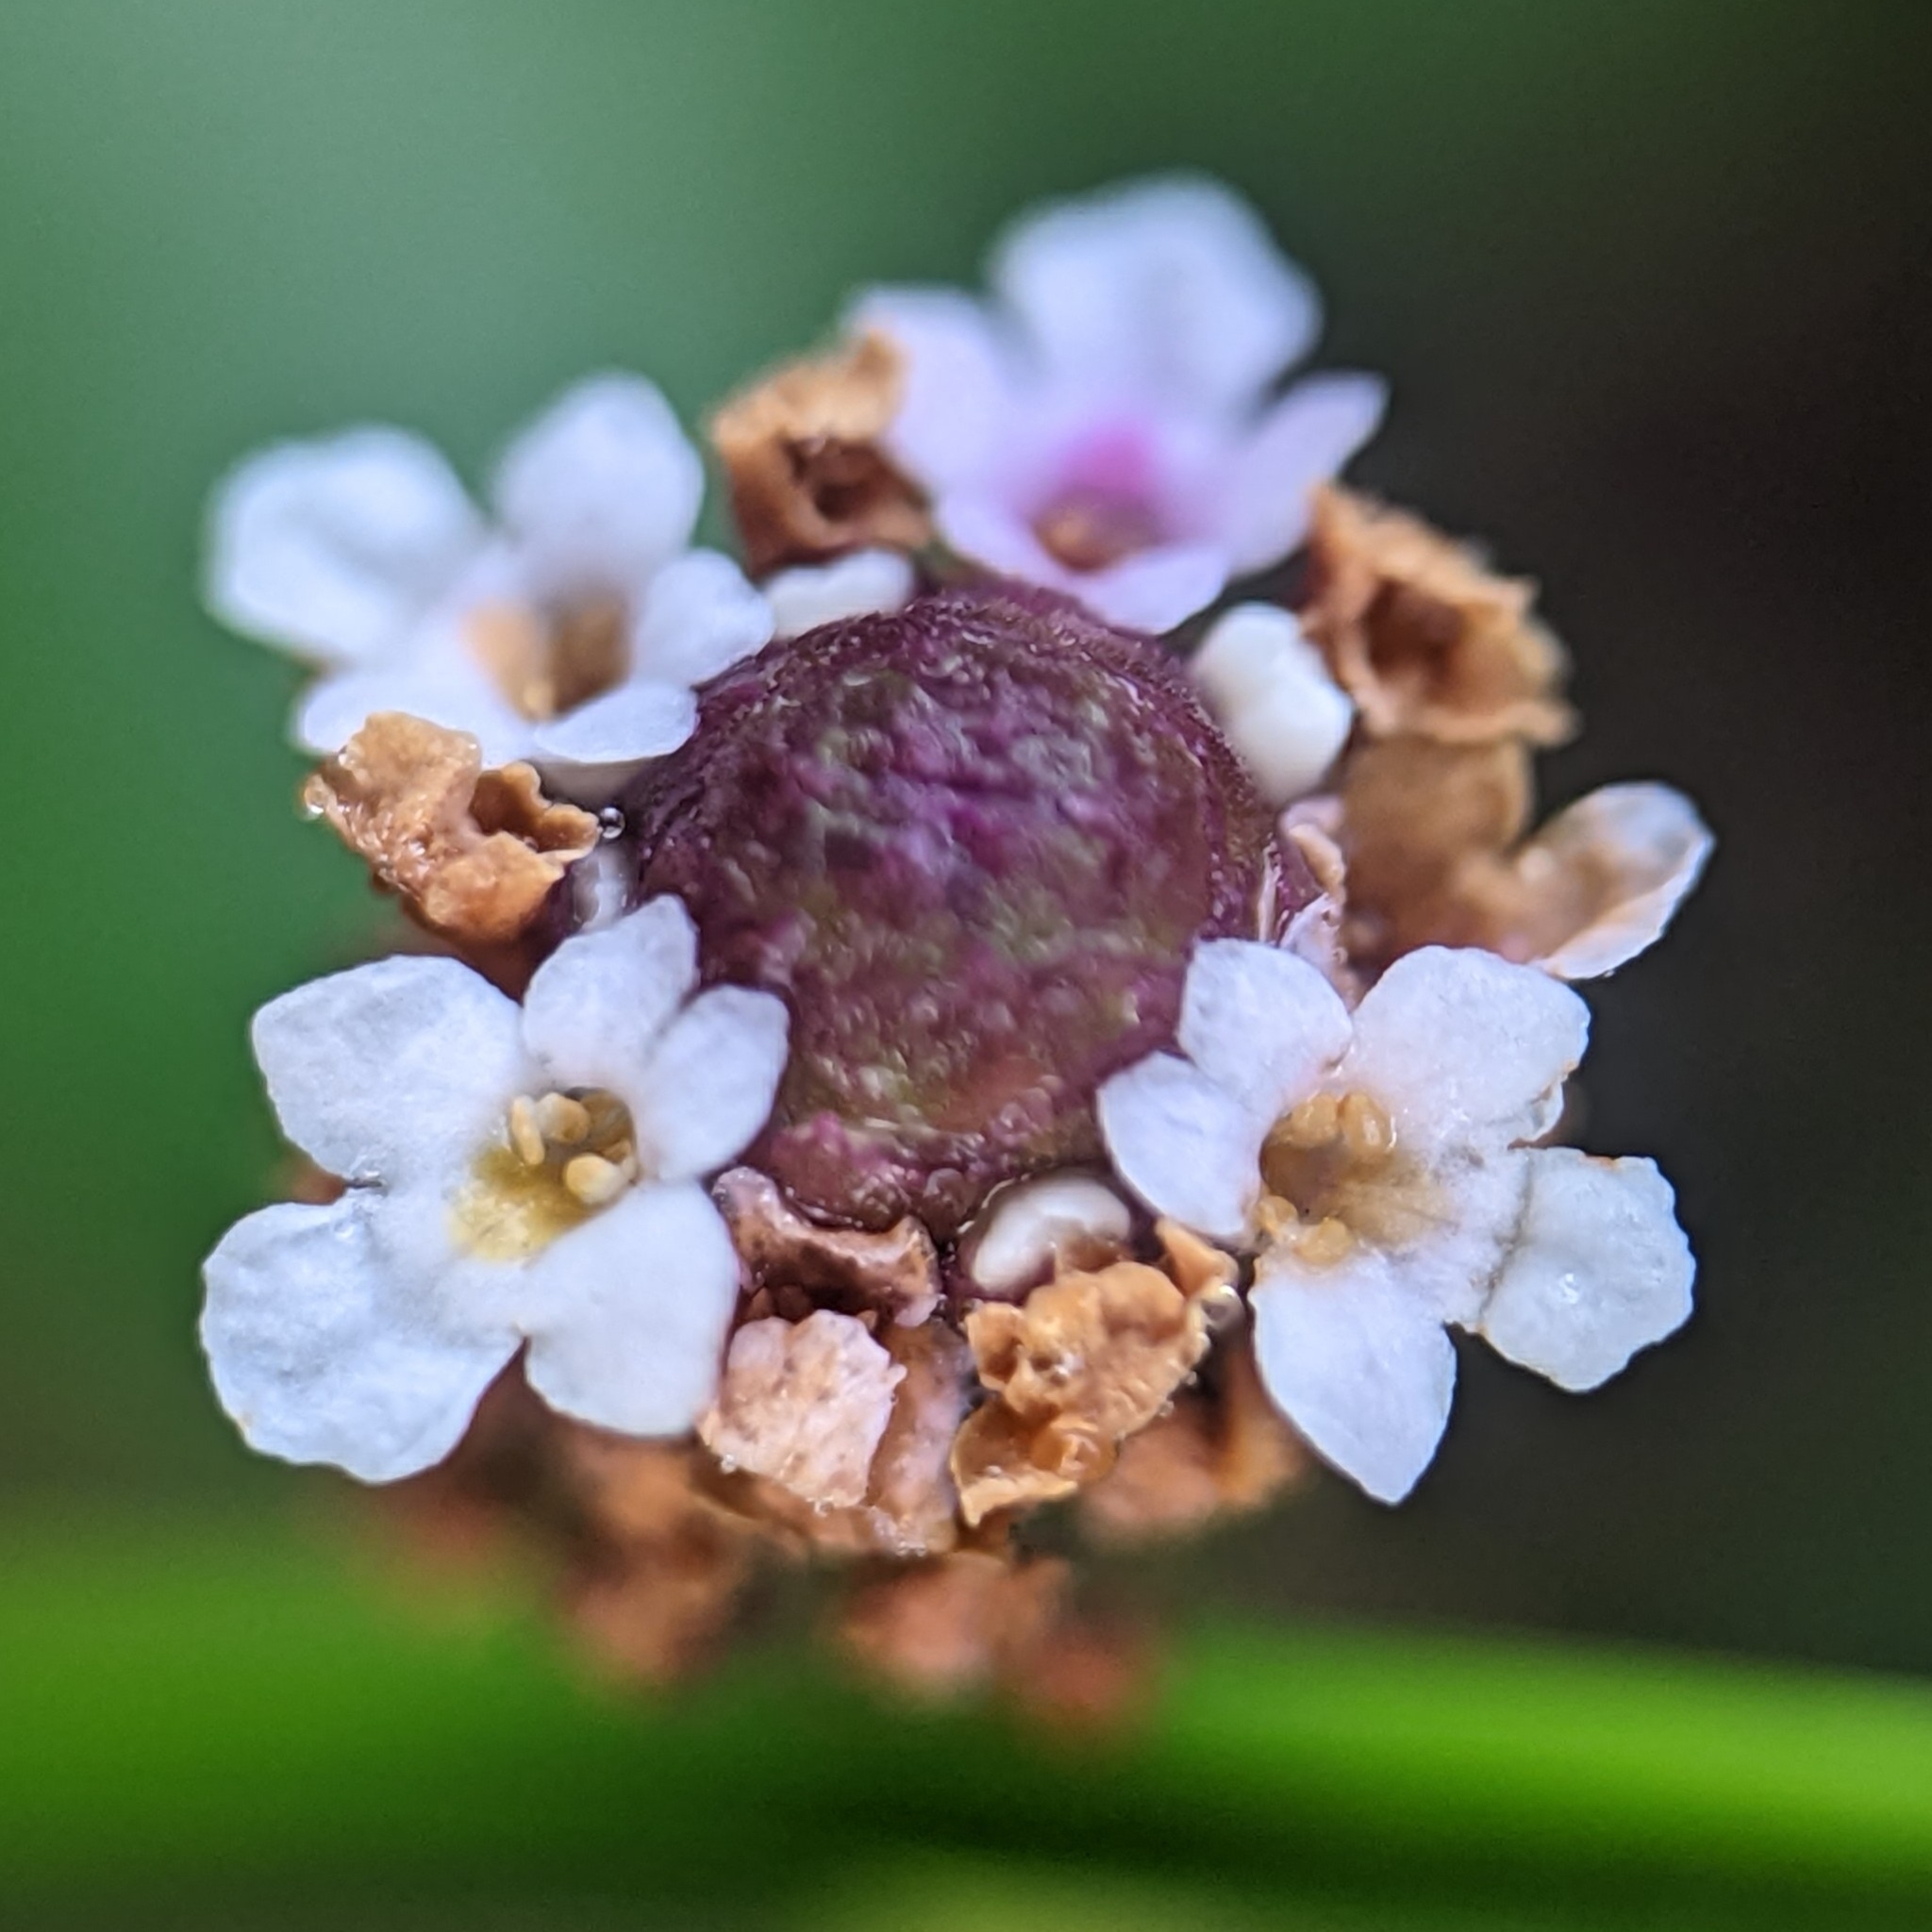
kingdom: Plantae
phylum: Tracheophyta
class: Magnoliopsida
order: Lamiales
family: Verbenaceae
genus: Phyla
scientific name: Phyla nodiflora
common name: Frogfruit
